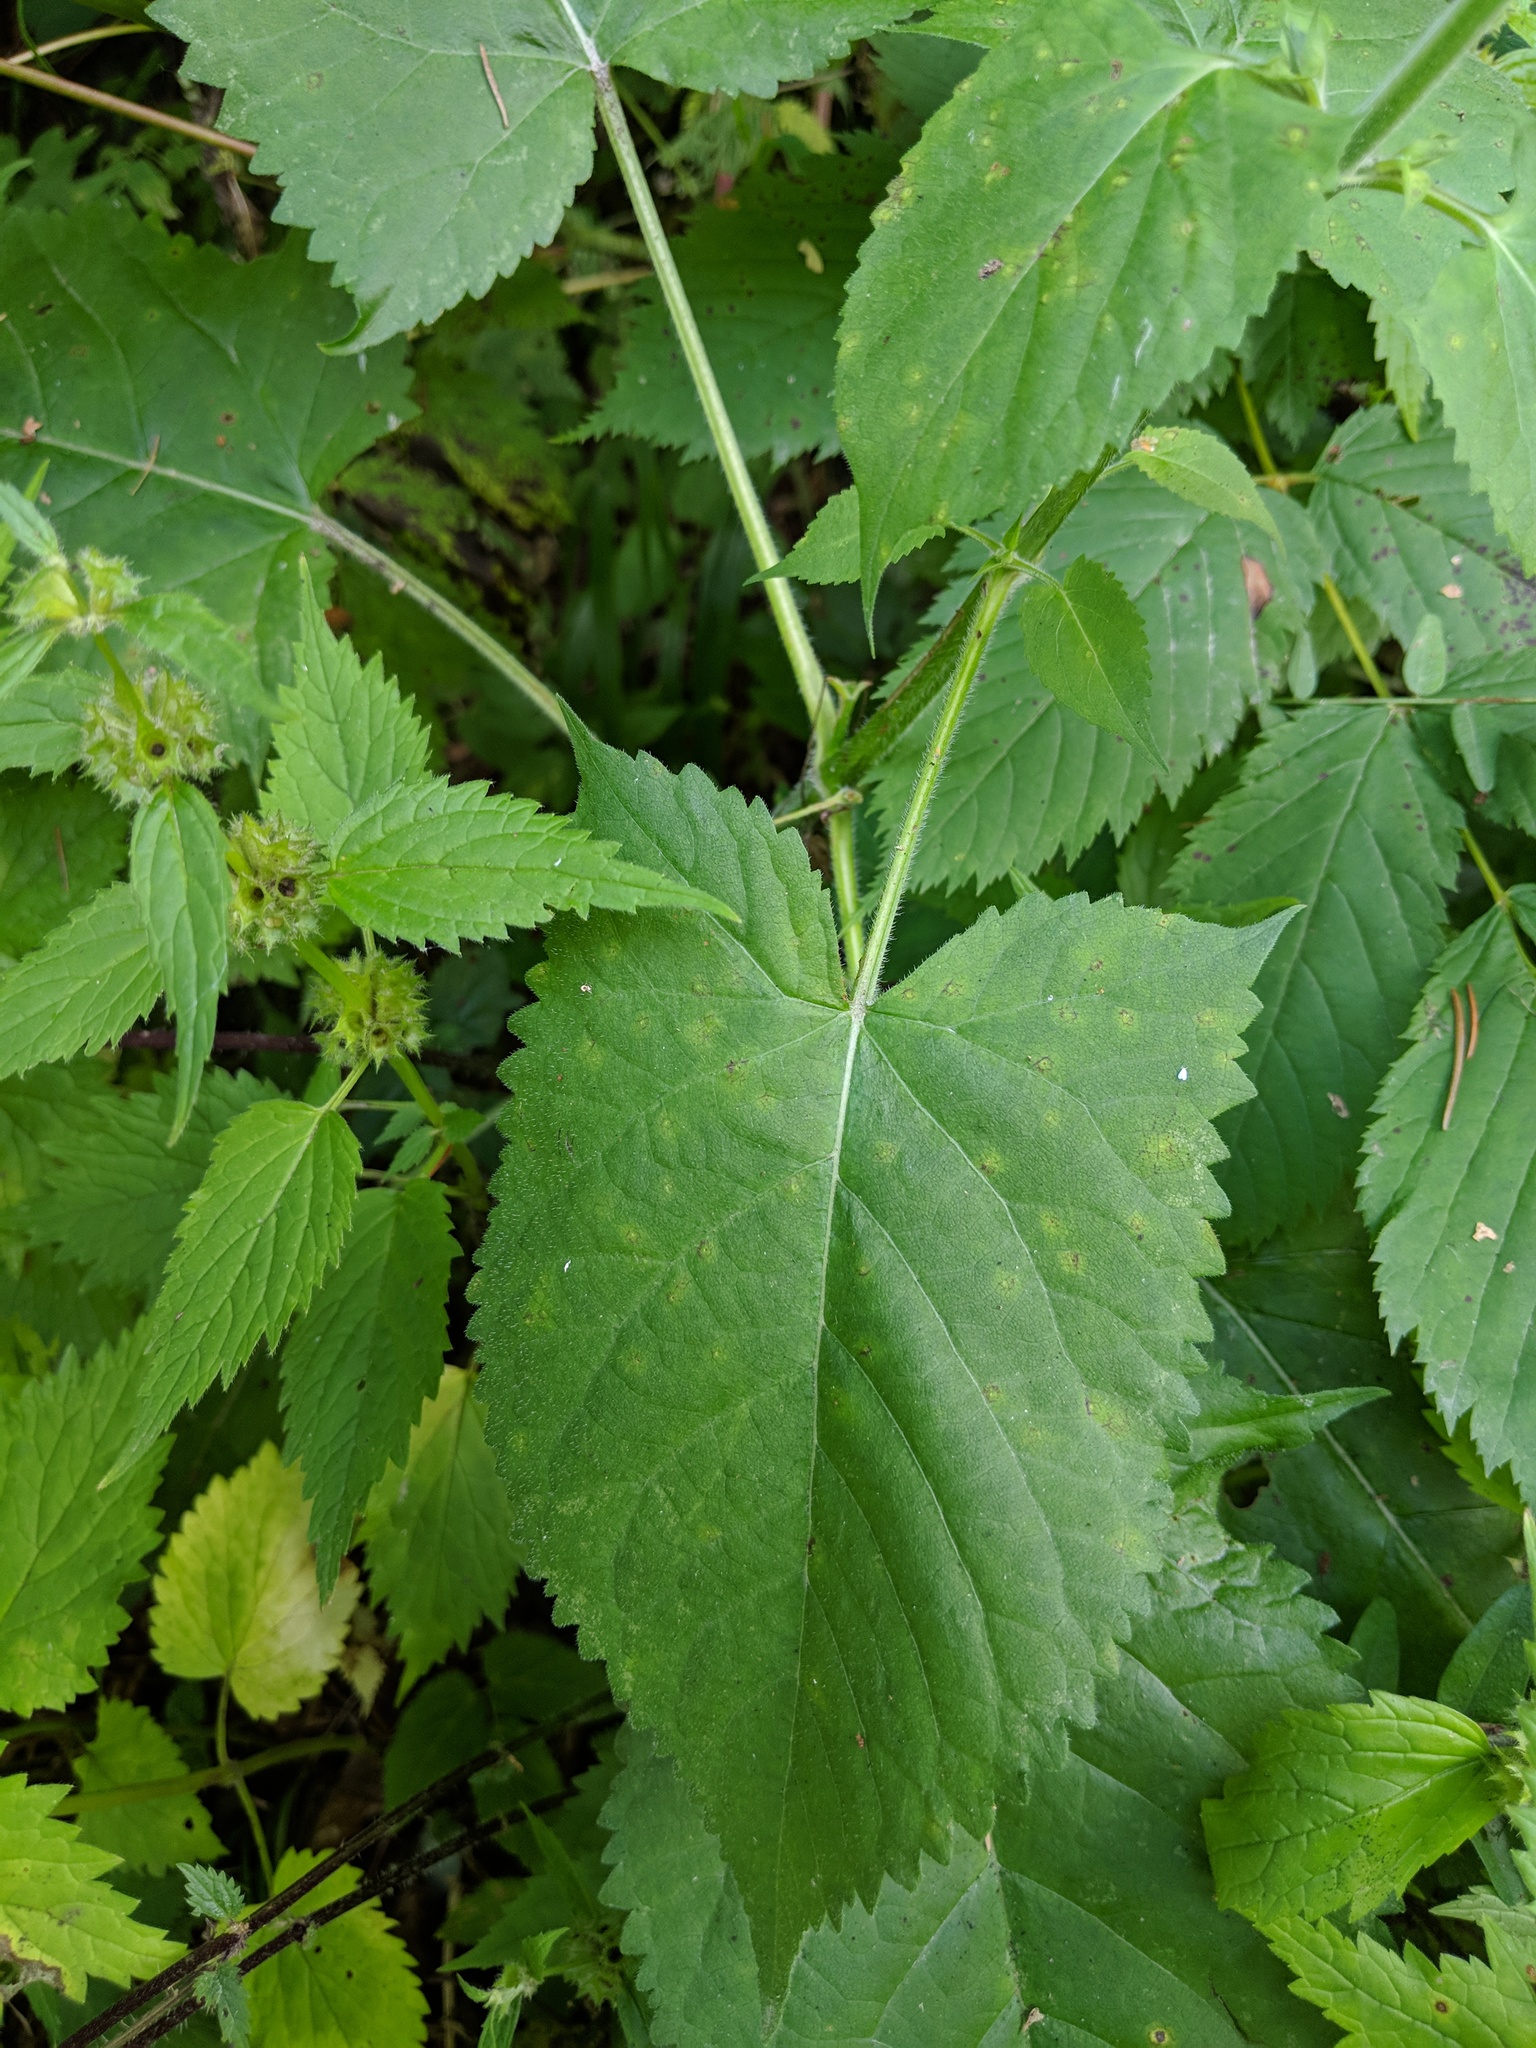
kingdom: Plantae
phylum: Tracheophyta
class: Magnoliopsida
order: Lamiales
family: Lamiaceae
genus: Salvia
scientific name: Salvia glutinosa
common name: Sticky clary
